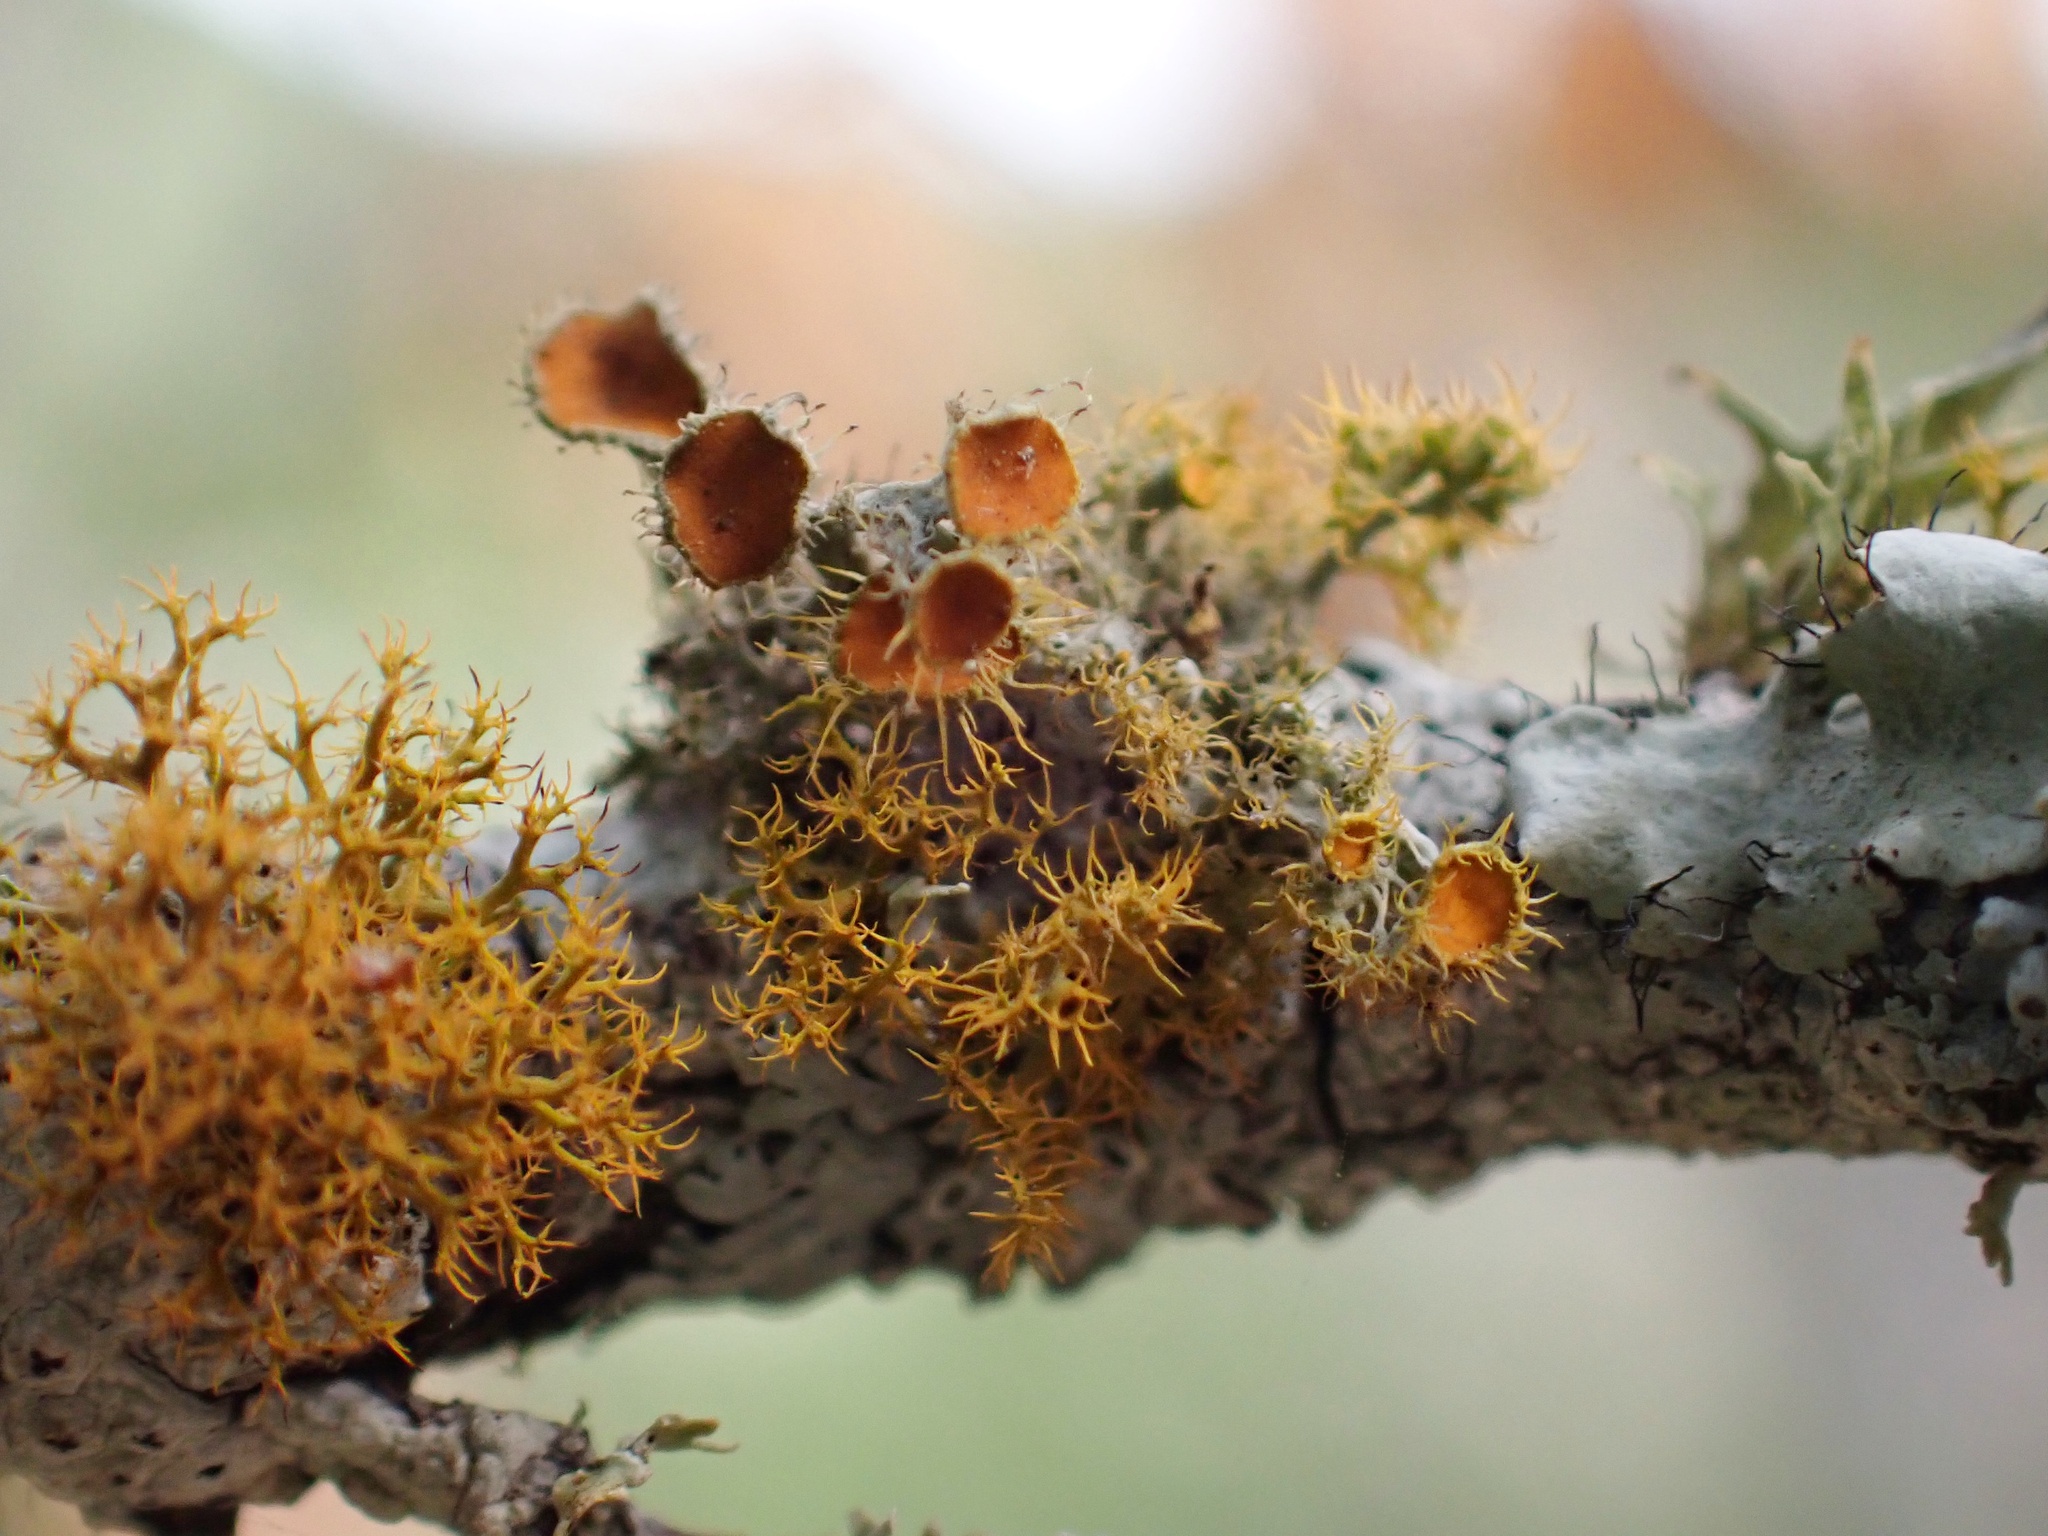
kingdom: Fungi
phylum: Ascomycota
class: Lecanoromycetes
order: Teloschistales
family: Teloschistaceae
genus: Niorma
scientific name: Niorma chrysophthalma
